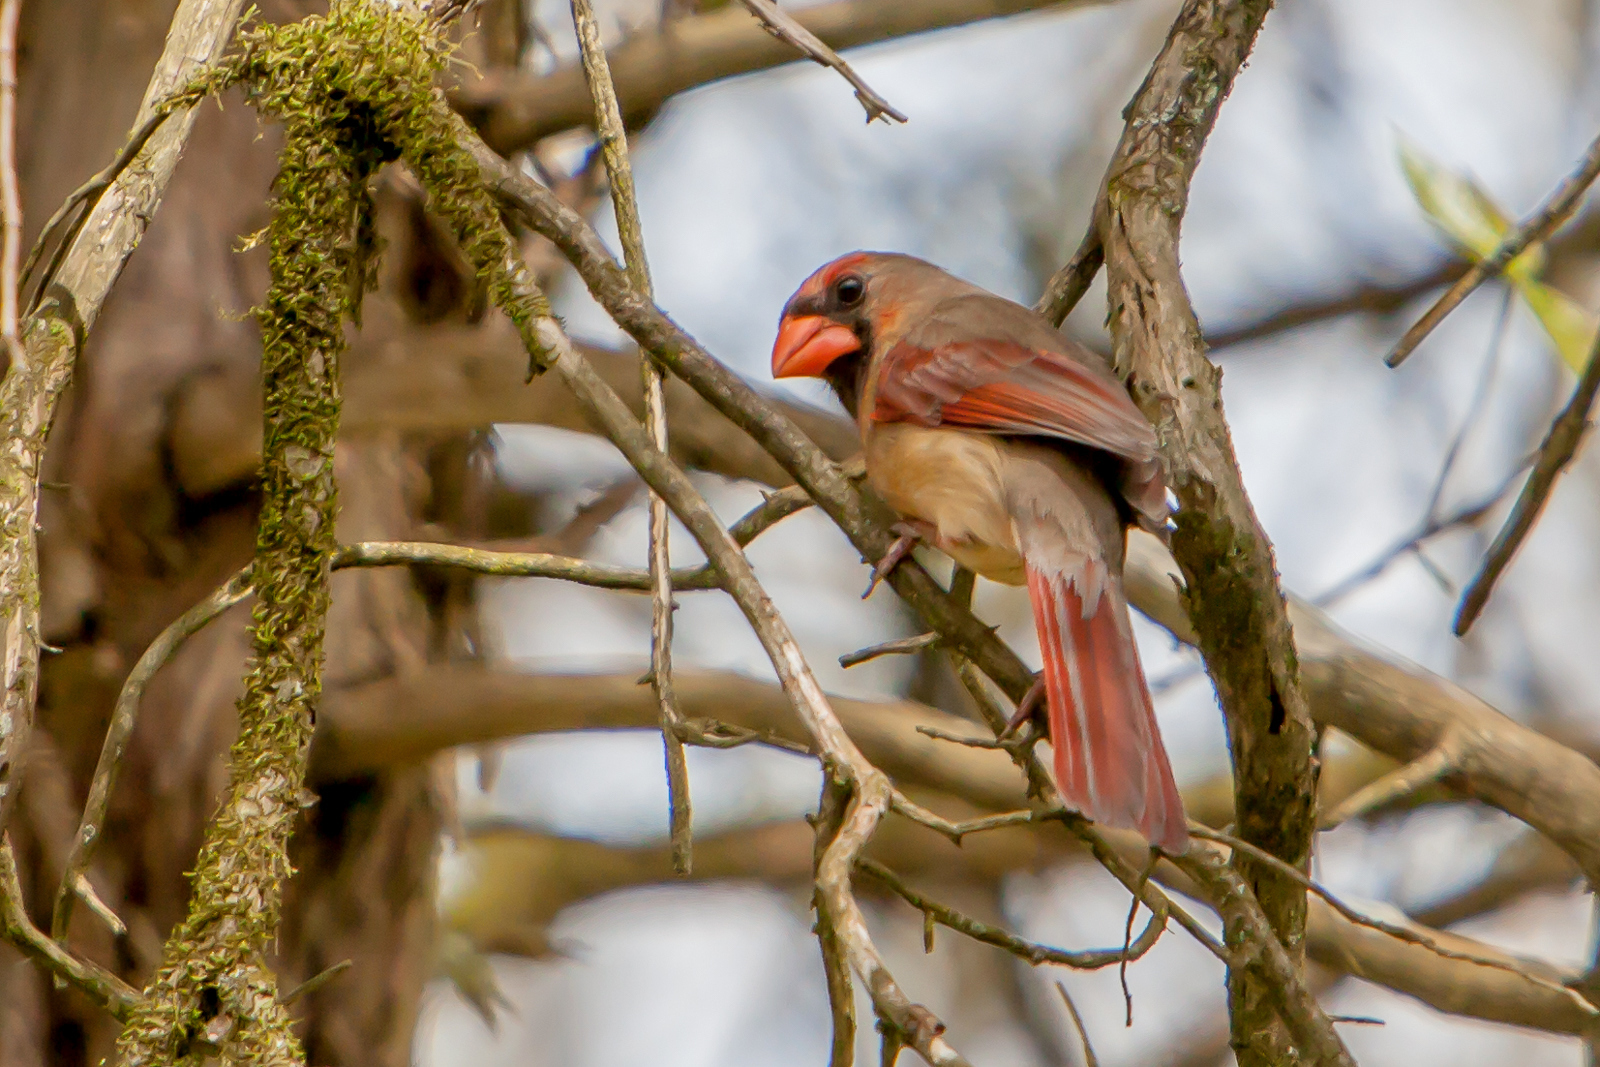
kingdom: Animalia
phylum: Chordata
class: Aves
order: Passeriformes
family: Cardinalidae
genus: Cardinalis
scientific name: Cardinalis cardinalis
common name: Northern cardinal
